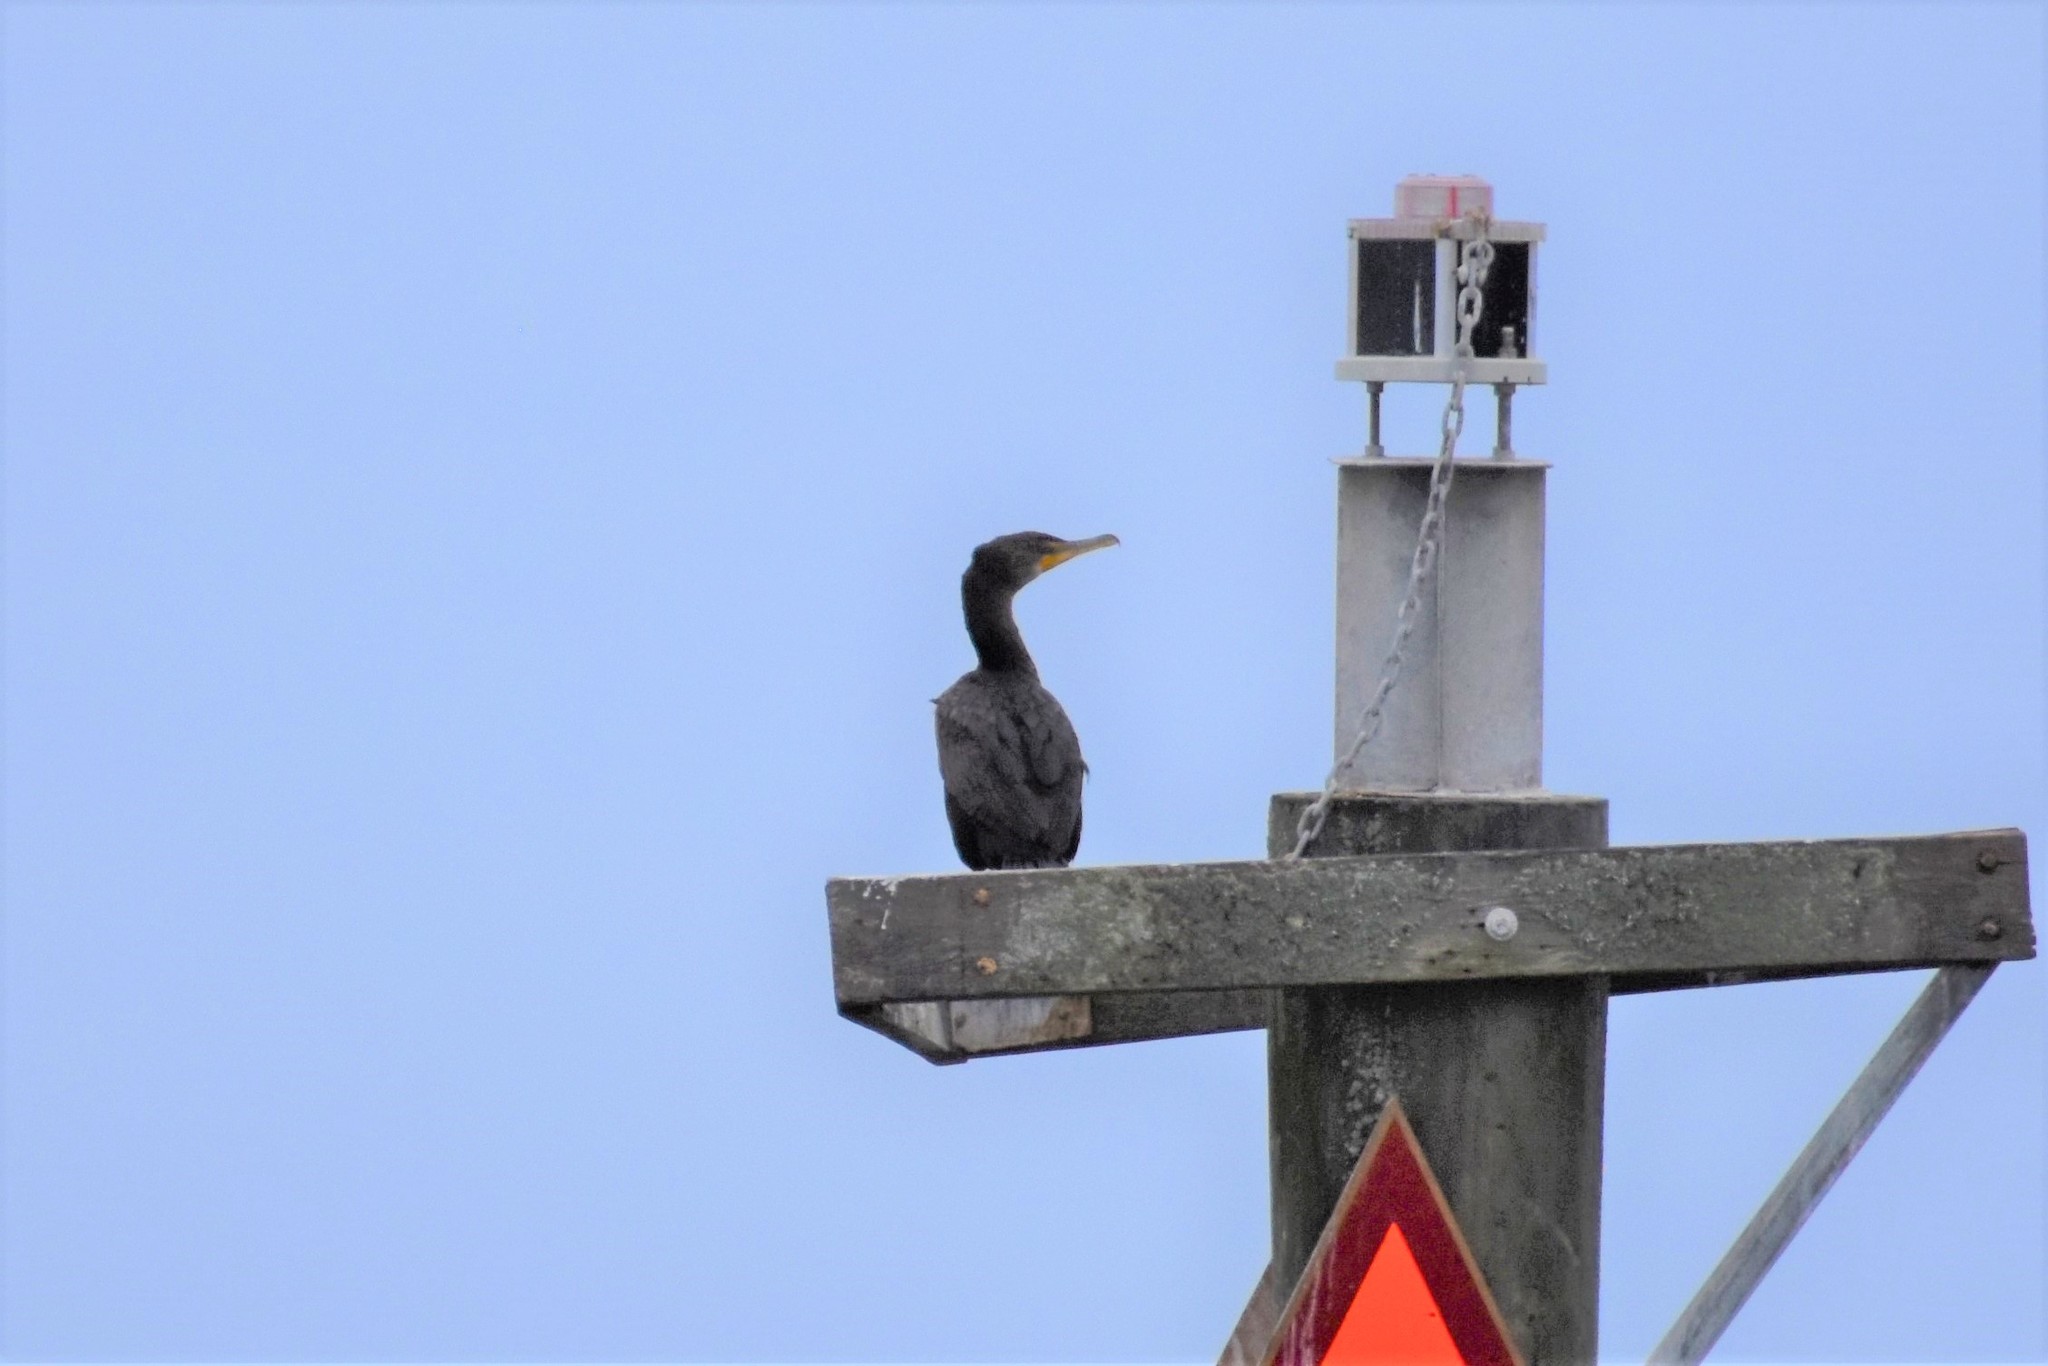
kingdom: Animalia
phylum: Chordata
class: Aves
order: Suliformes
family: Phalacrocoracidae
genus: Phalacrocorax
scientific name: Phalacrocorax auritus
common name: Double-crested cormorant
